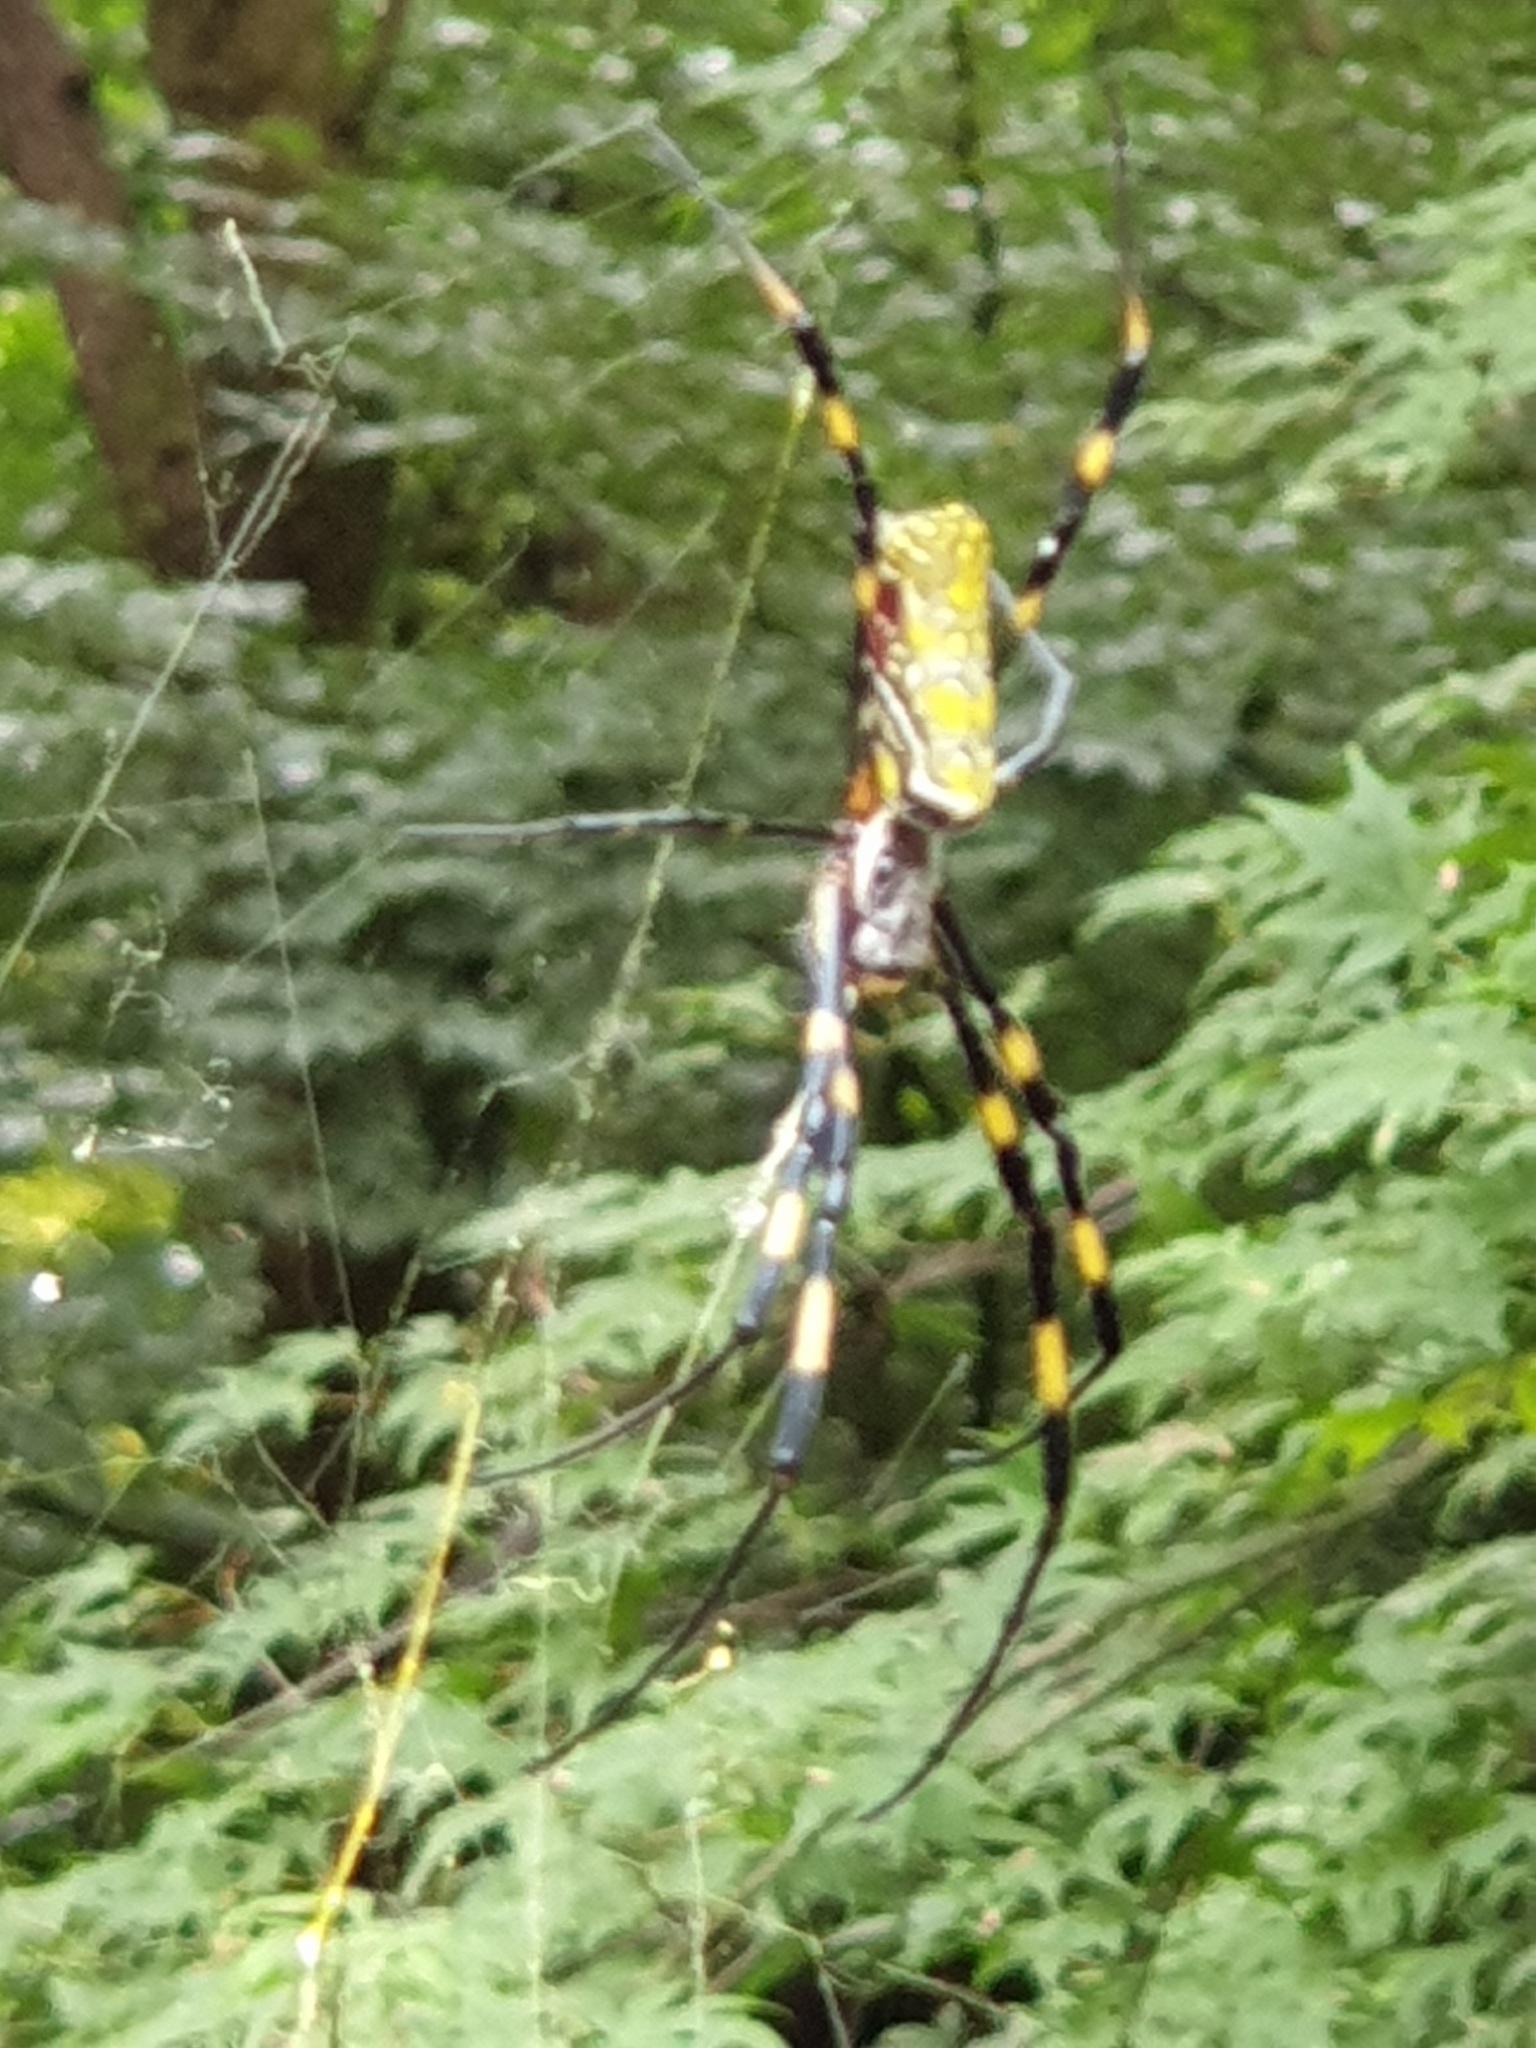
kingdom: Animalia
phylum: Arthropoda
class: Arachnida
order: Araneae
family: Araneidae
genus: Trichonephila
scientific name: Trichonephila clavata
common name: Jorō spider
